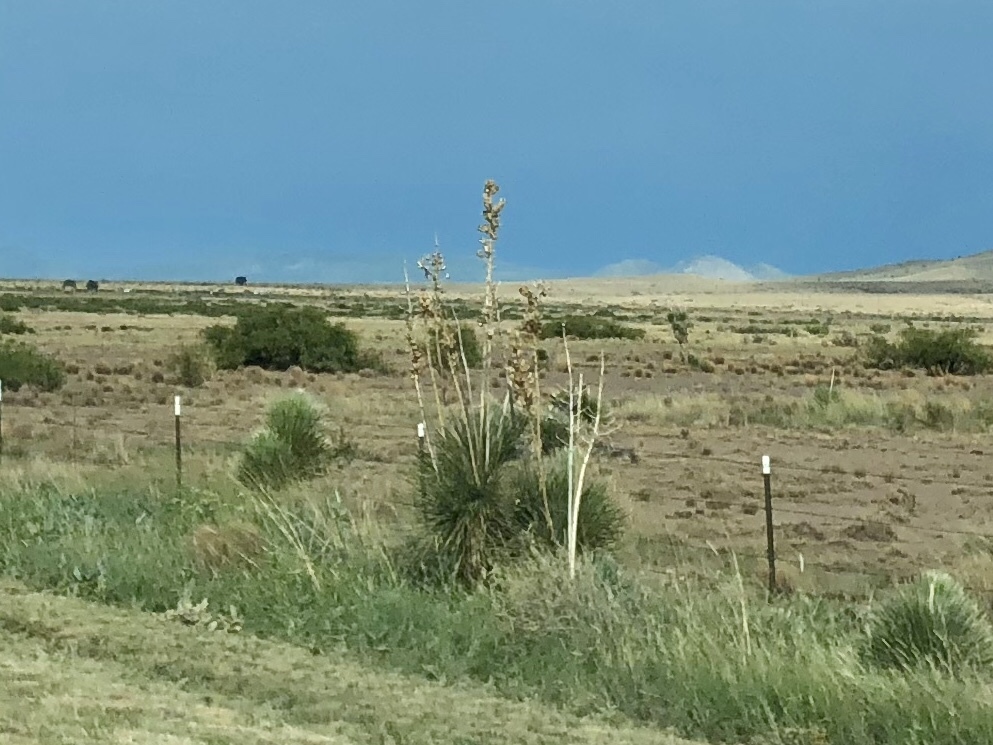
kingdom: Plantae
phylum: Tracheophyta
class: Liliopsida
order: Asparagales
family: Asparagaceae
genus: Yucca
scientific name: Yucca elata
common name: Palmella
